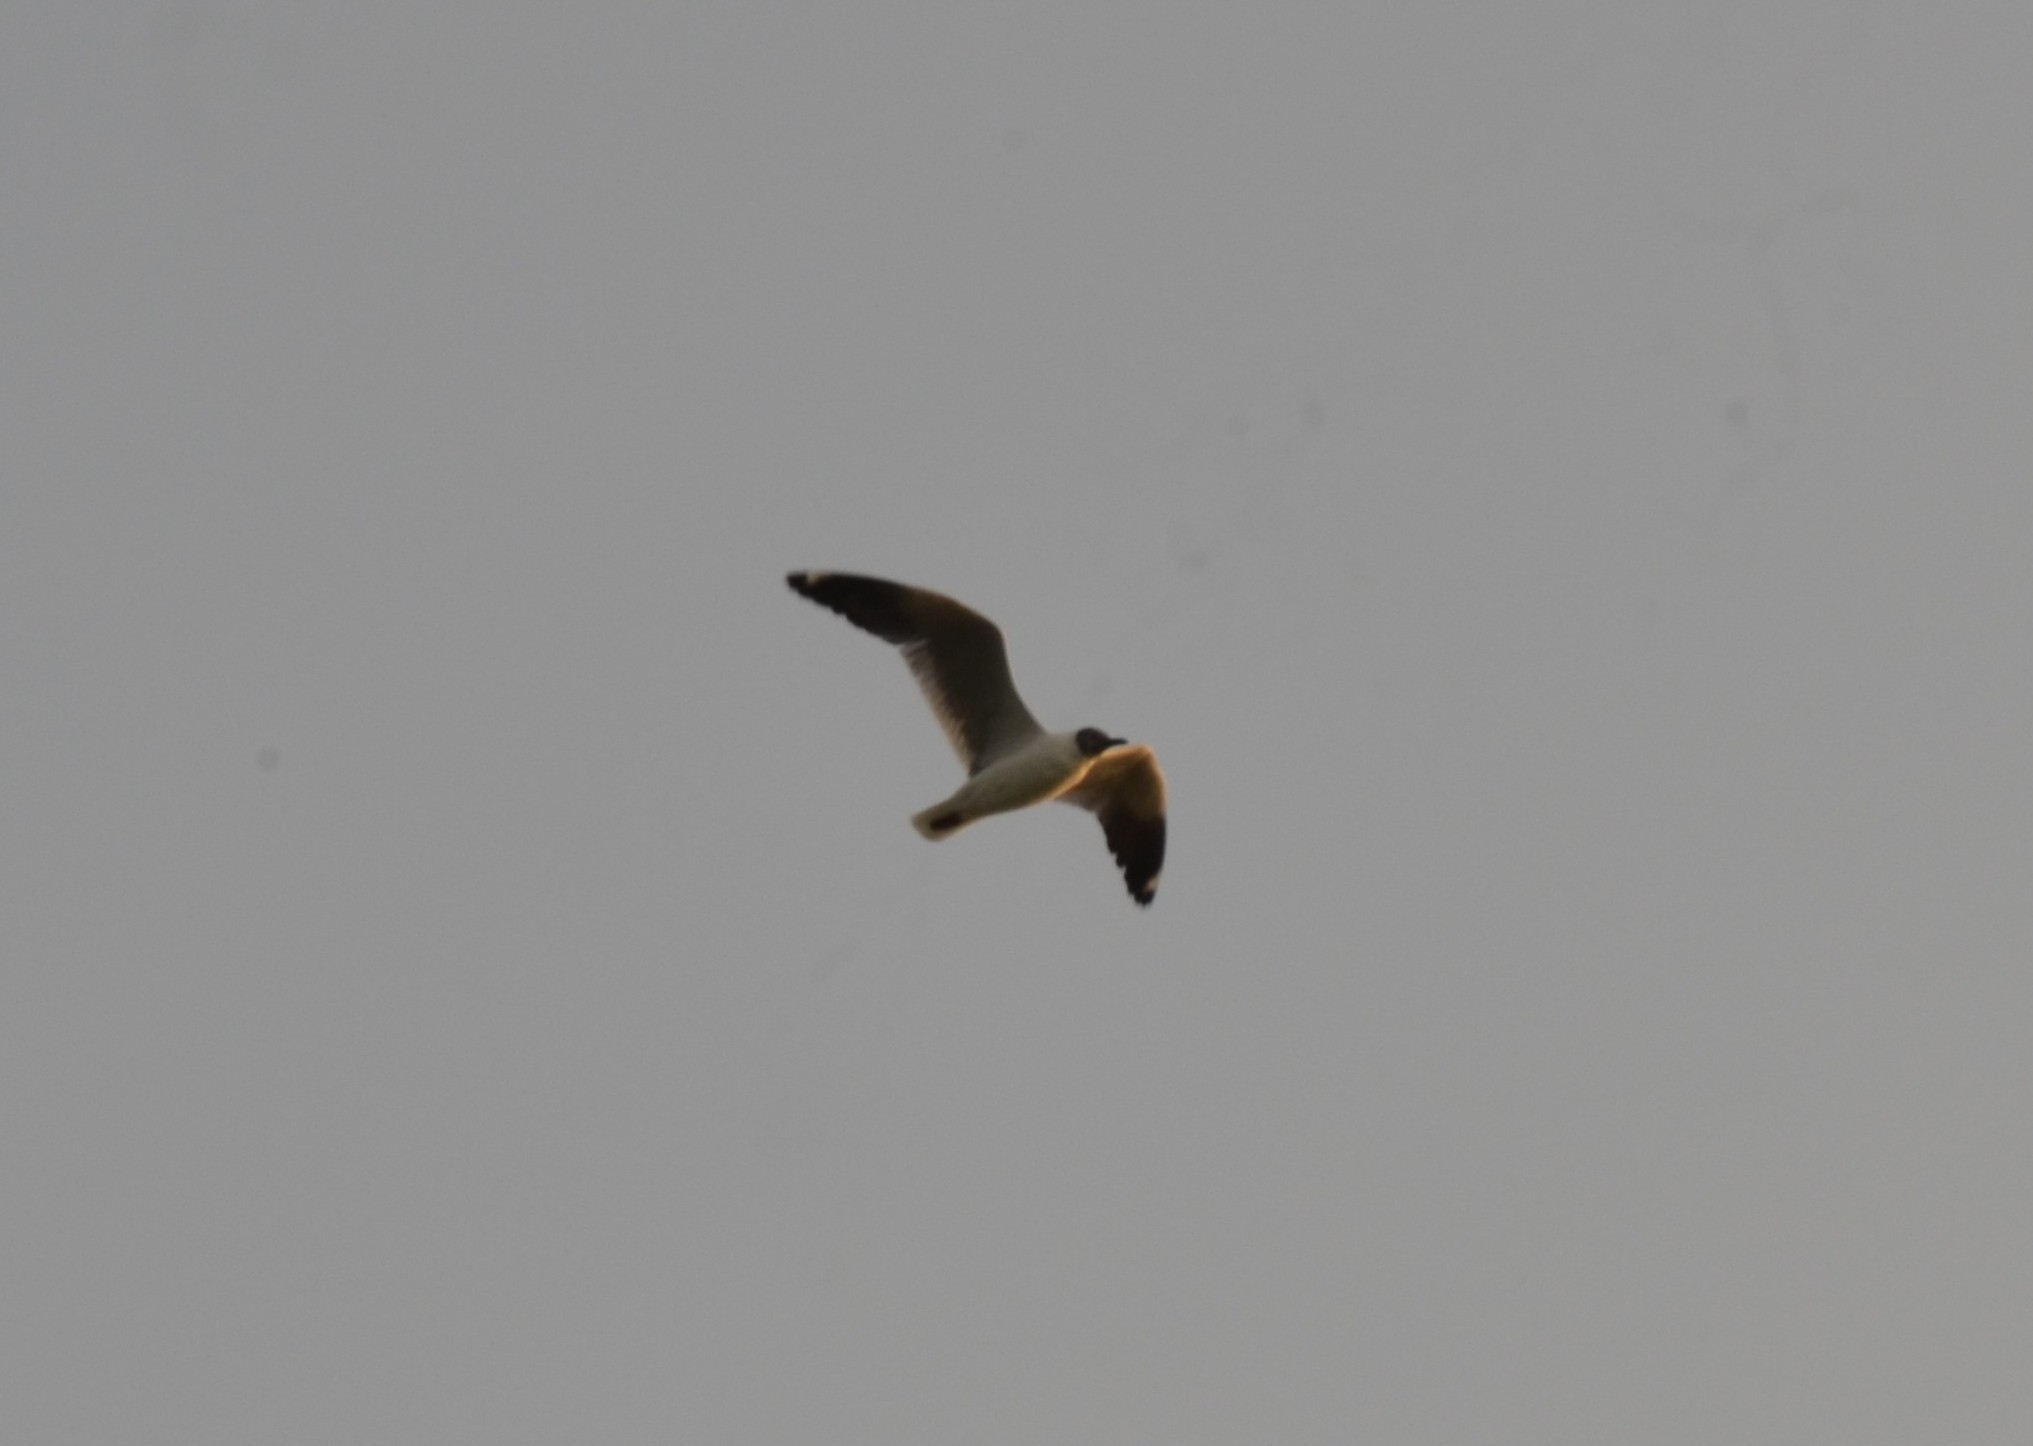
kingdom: Animalia
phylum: Chordata
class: Aves
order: Charadriiformes
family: Laridae
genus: Chroicocephalus
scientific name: Chroicocephalus brunnicephalus
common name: Brown-headed gull
